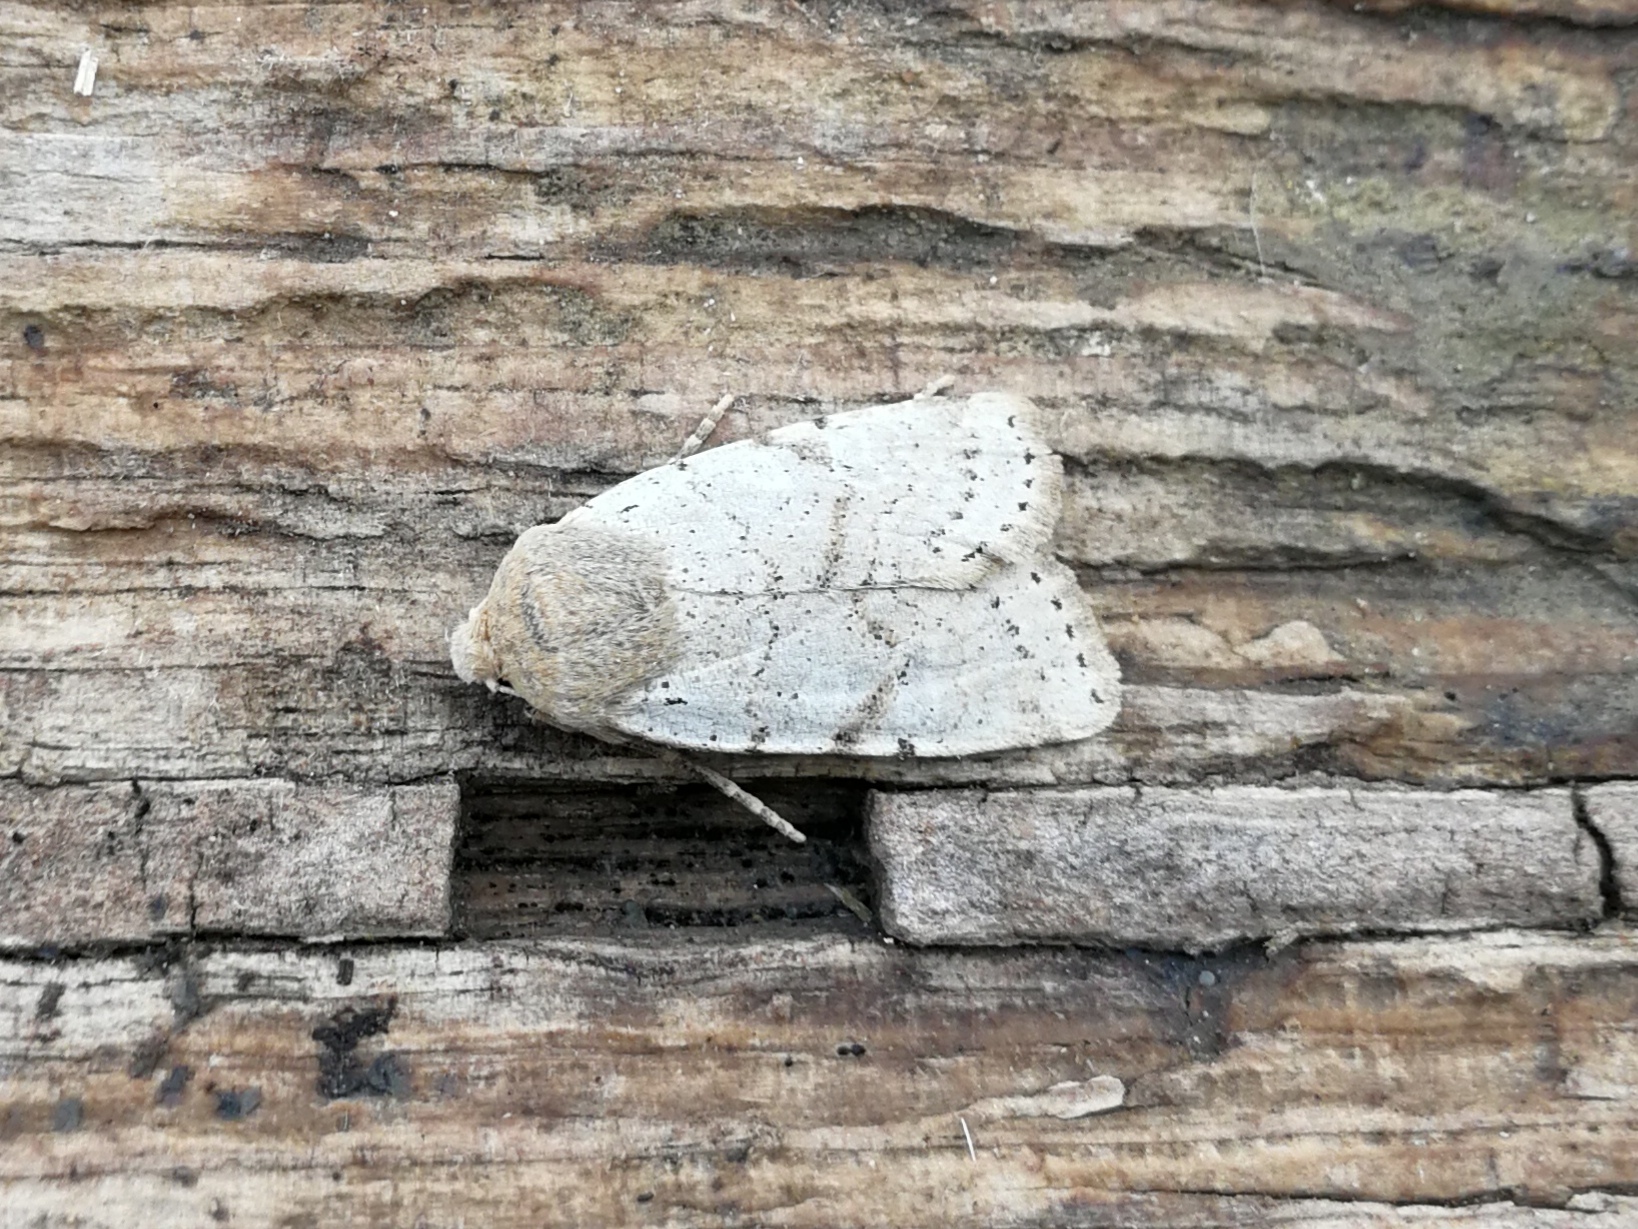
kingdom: Animalia
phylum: Arthropoda
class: Insecta
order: Lepidoptera
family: Noctuidae
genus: Conistra
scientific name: Conistra daubei
